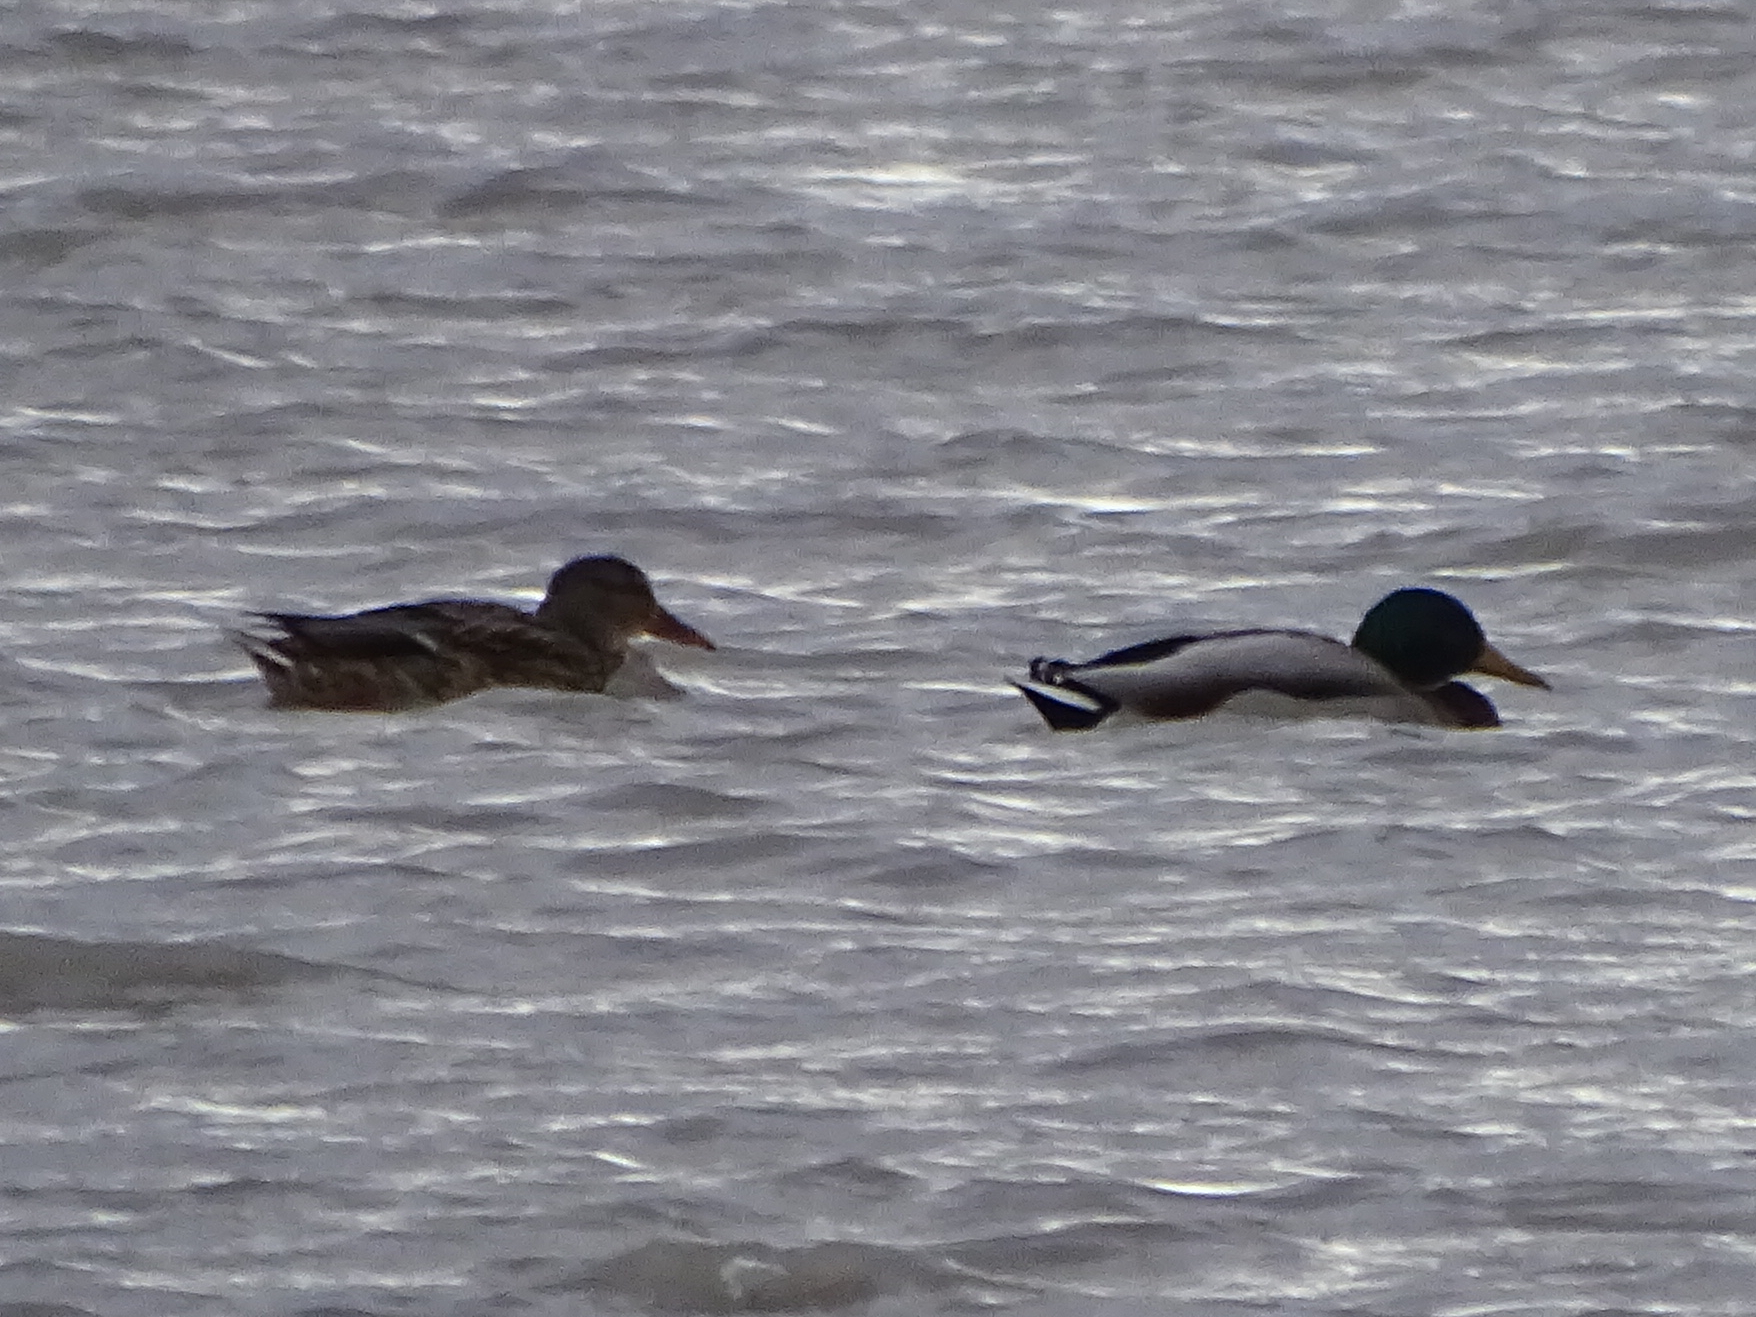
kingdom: Animalia
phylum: Chordata
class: Aves
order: Anseriformes
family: Anatidae
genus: Anas
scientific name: Anas platyrhynchos
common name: Mallard
